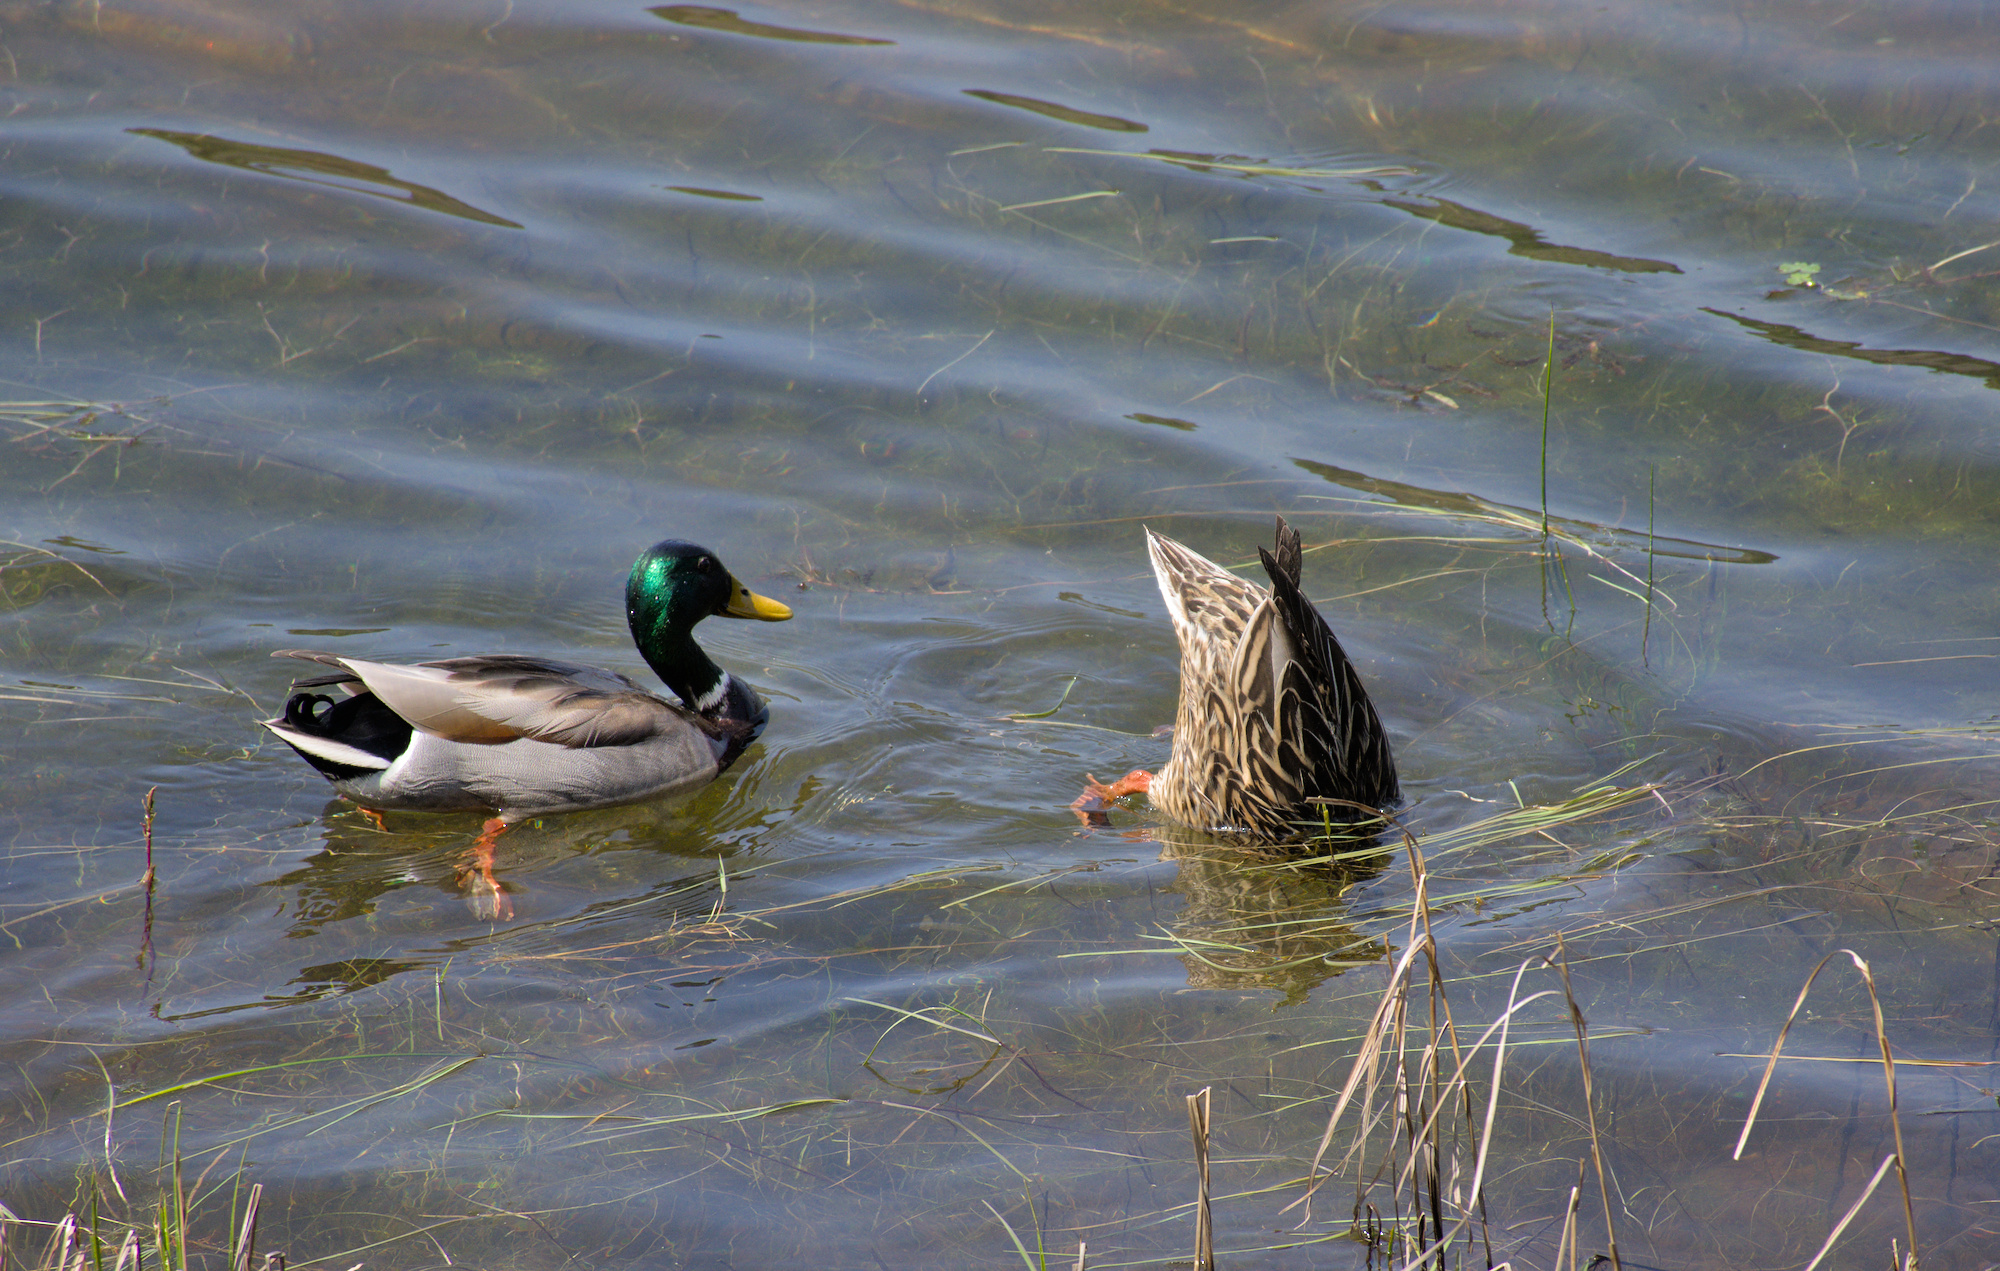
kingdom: Animalia
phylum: Chordata
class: Aves
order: Anseriformes
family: Anatidae
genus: Anas
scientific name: Anas platyrhynchos
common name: Mallard
